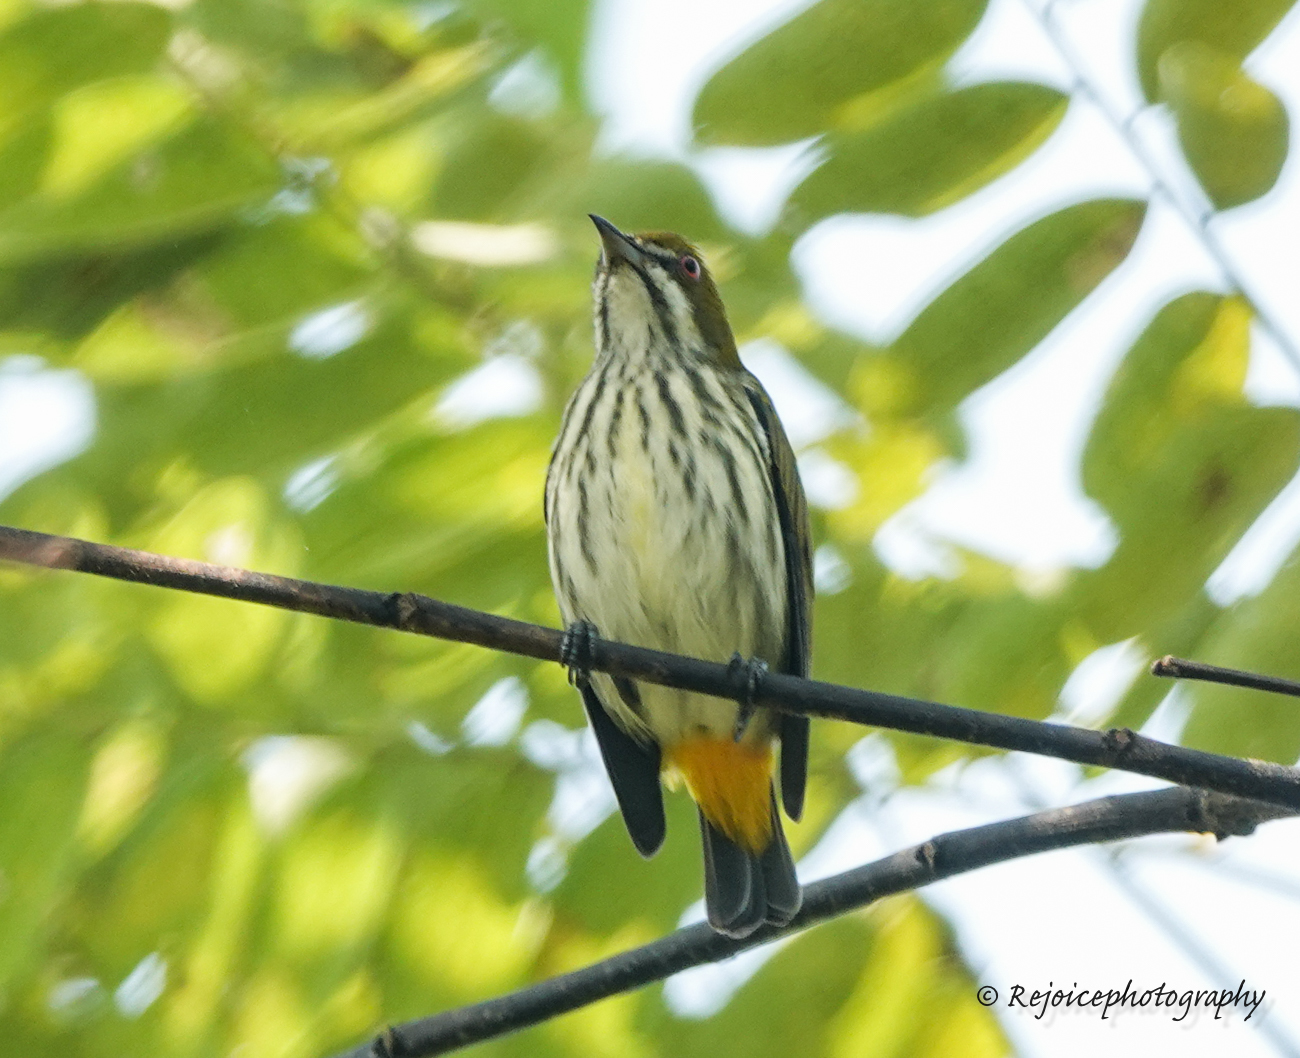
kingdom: Animalia
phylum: Chordata
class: Aves
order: Passeriformes
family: Dicaeidae
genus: Dicaeum
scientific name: Dicaeum chrysorrheum
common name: Yellow-vented flowerpecker
